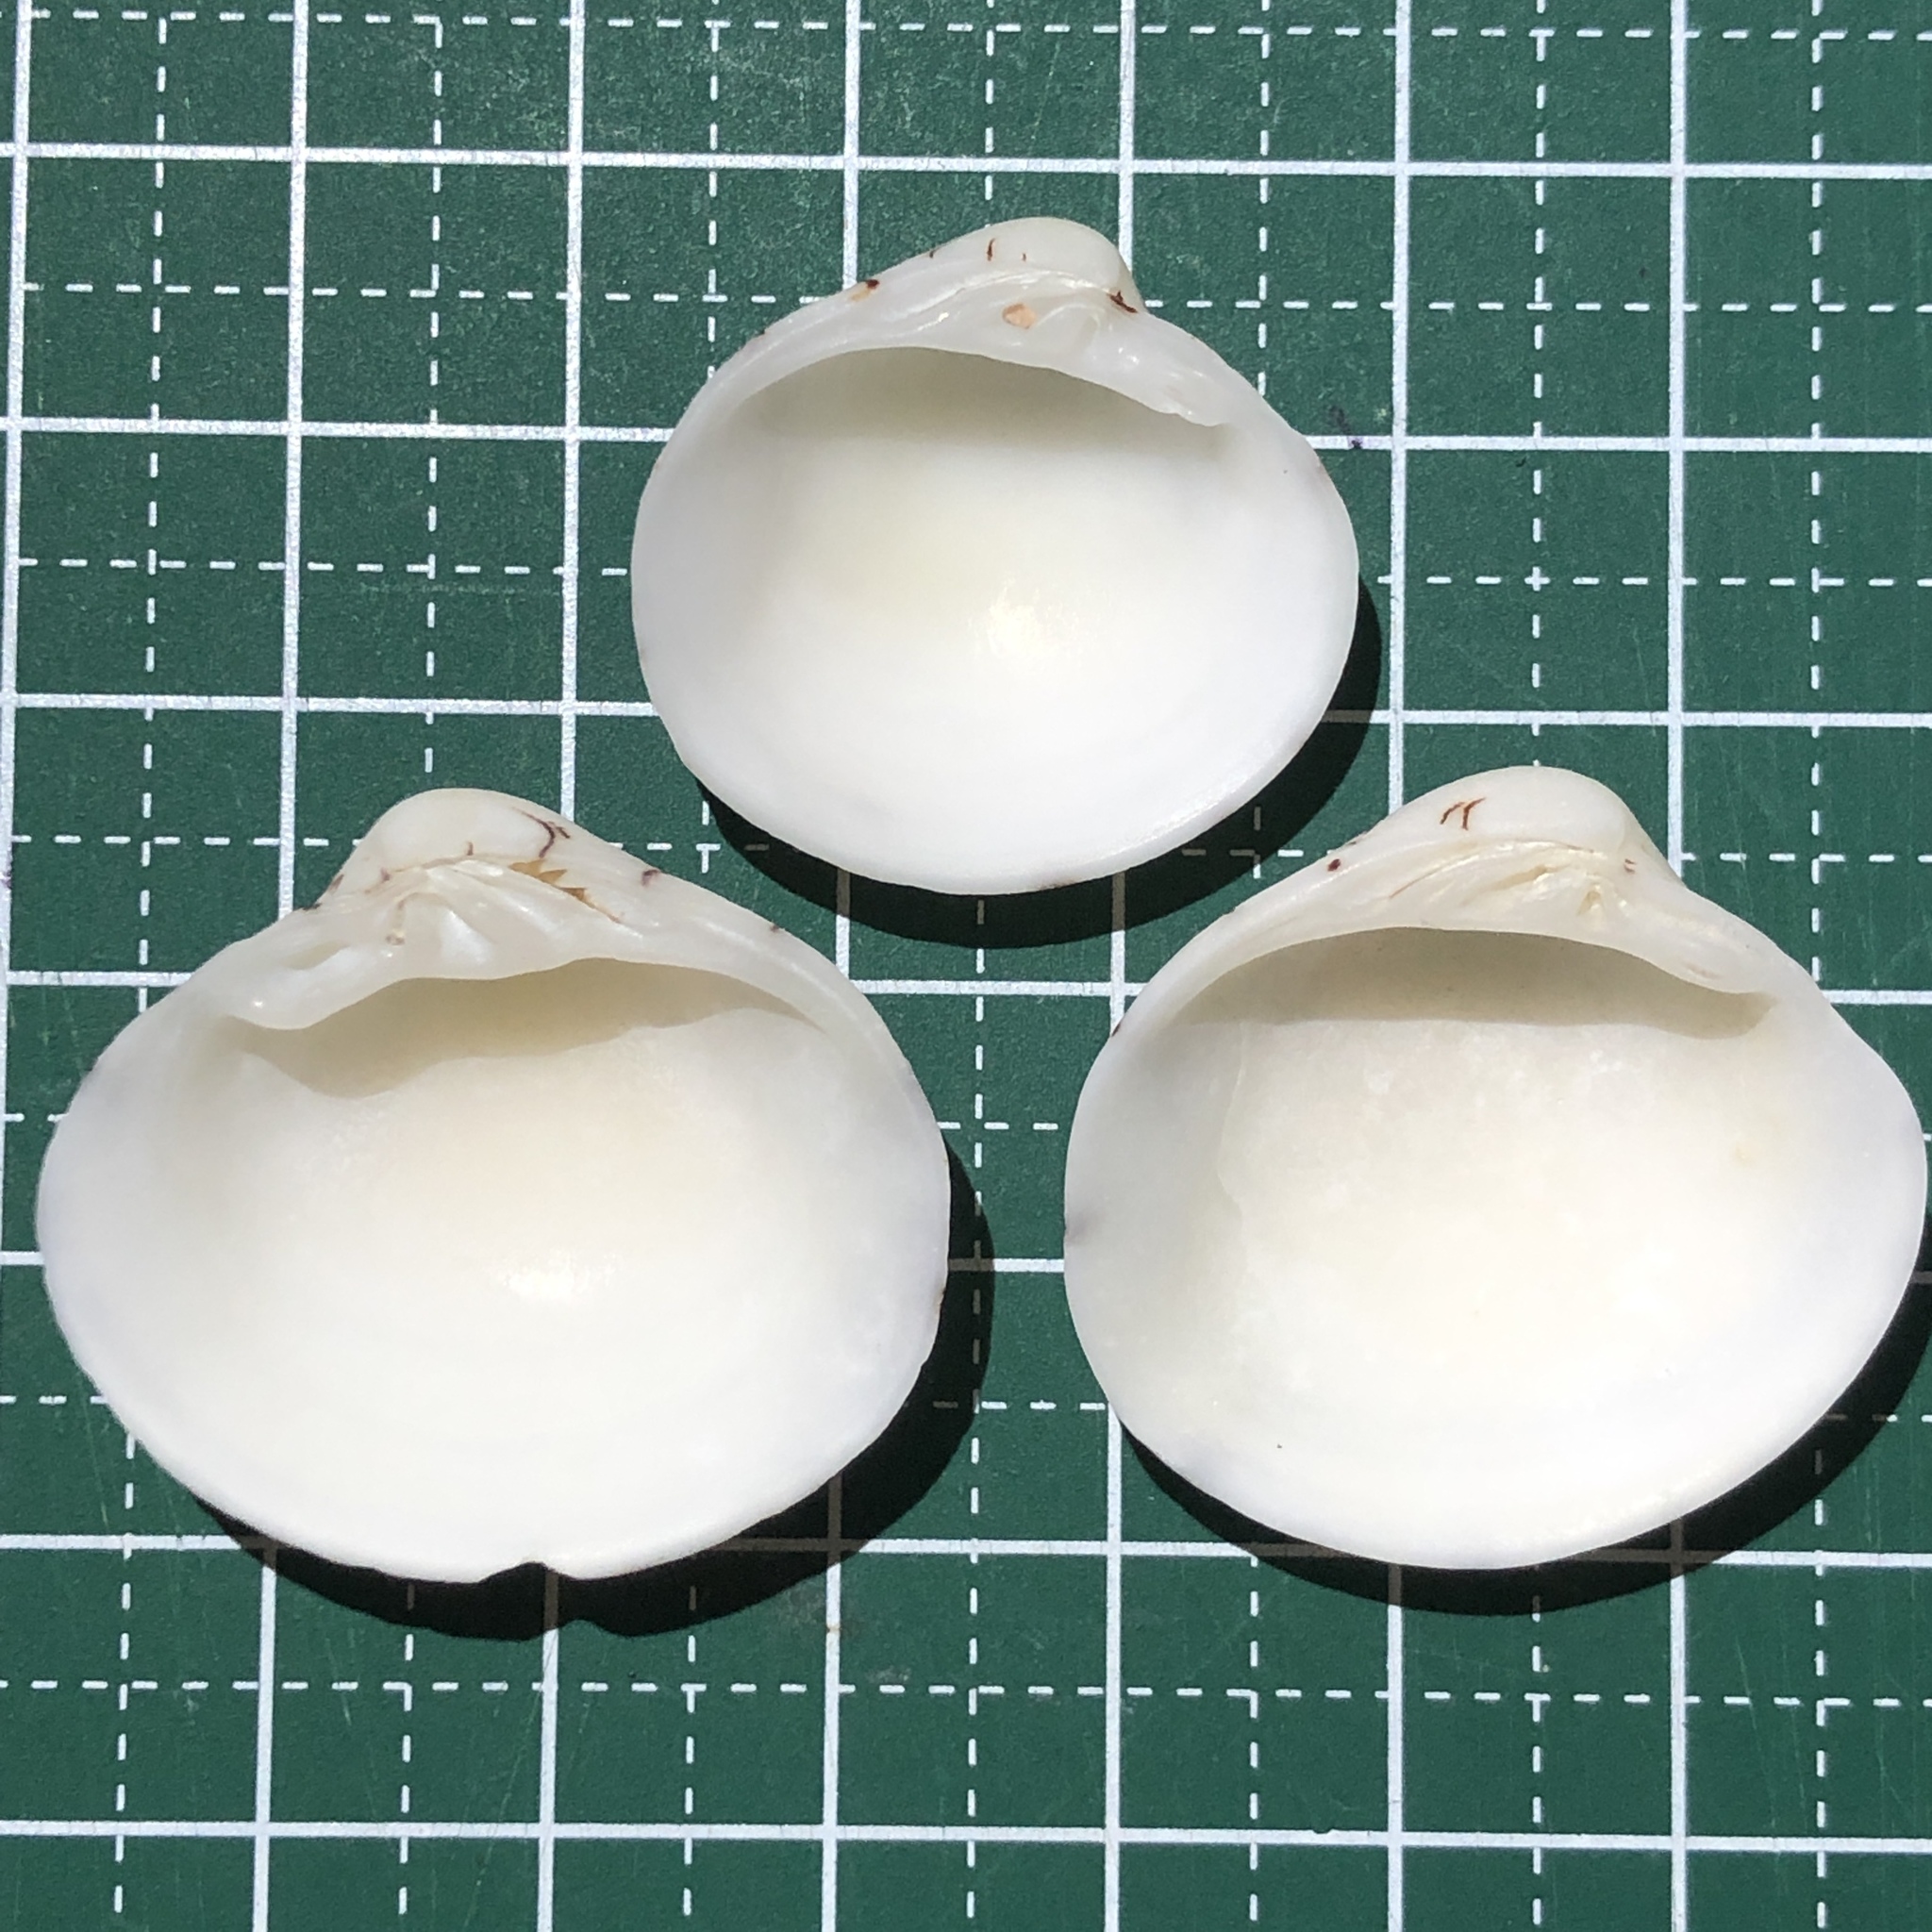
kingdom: Animalia
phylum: Mollusca
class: Bivalvia
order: Venerida
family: Veneridae
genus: Lioconcha
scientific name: Lioconcha castrensis
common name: Camp pitar-venus
